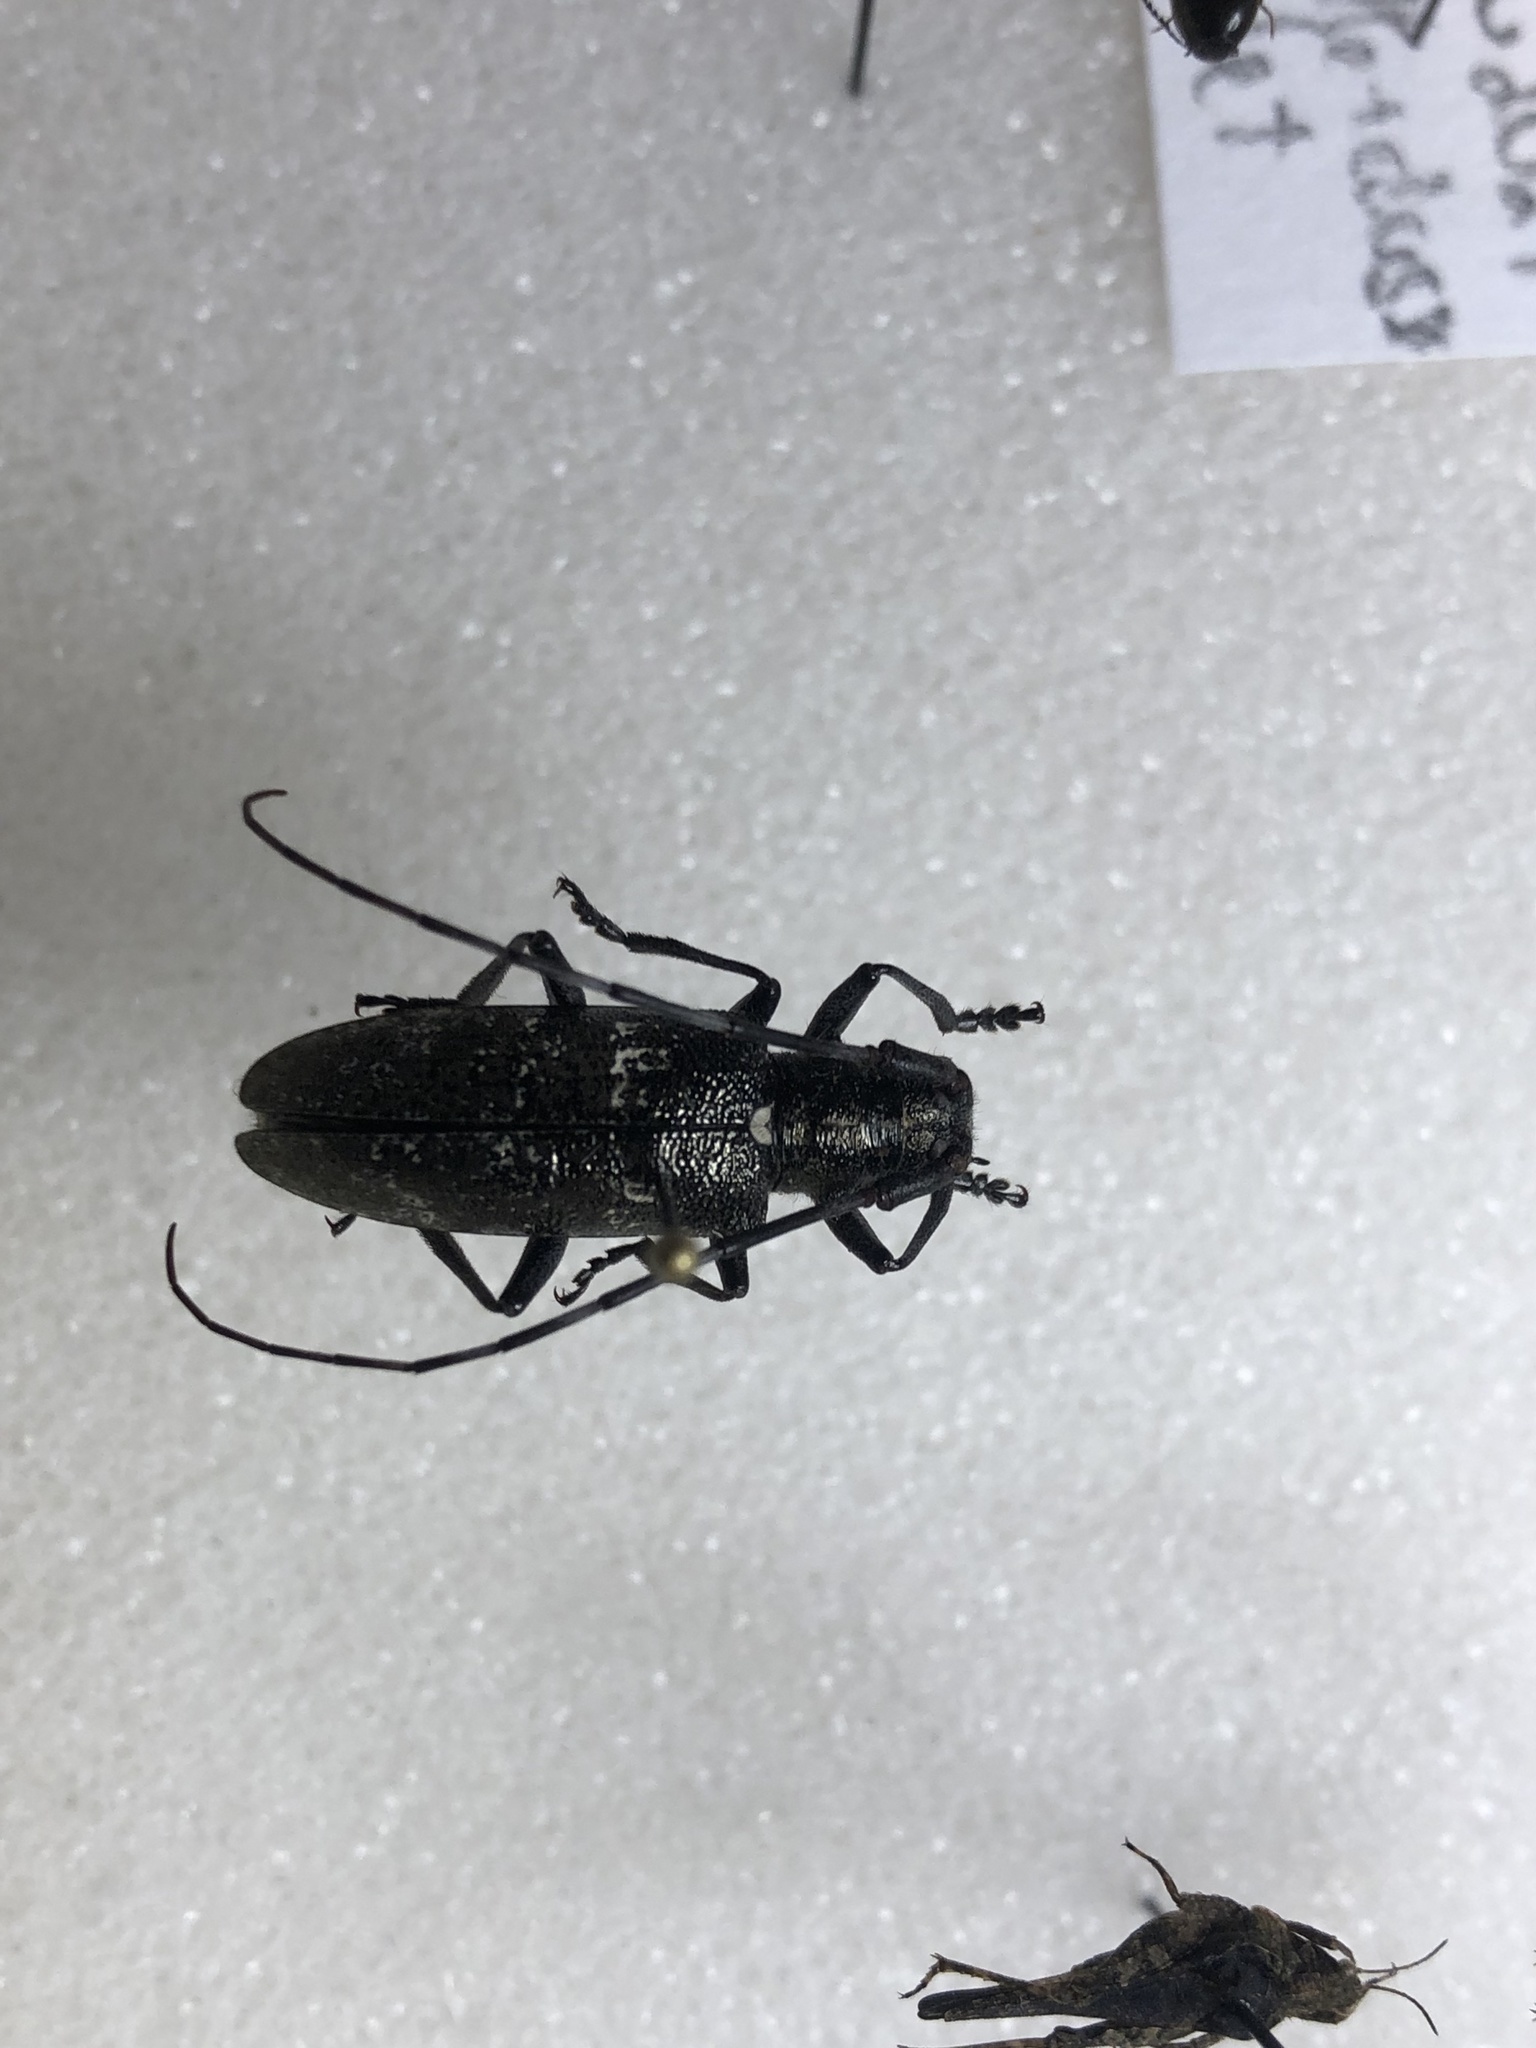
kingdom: Animalia
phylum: Arthropoda
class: Insecta
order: Coleoptera
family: Cerambycidae
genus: Monochamus
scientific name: Monochamus scutellatus
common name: White-spotted sawyer beetle
